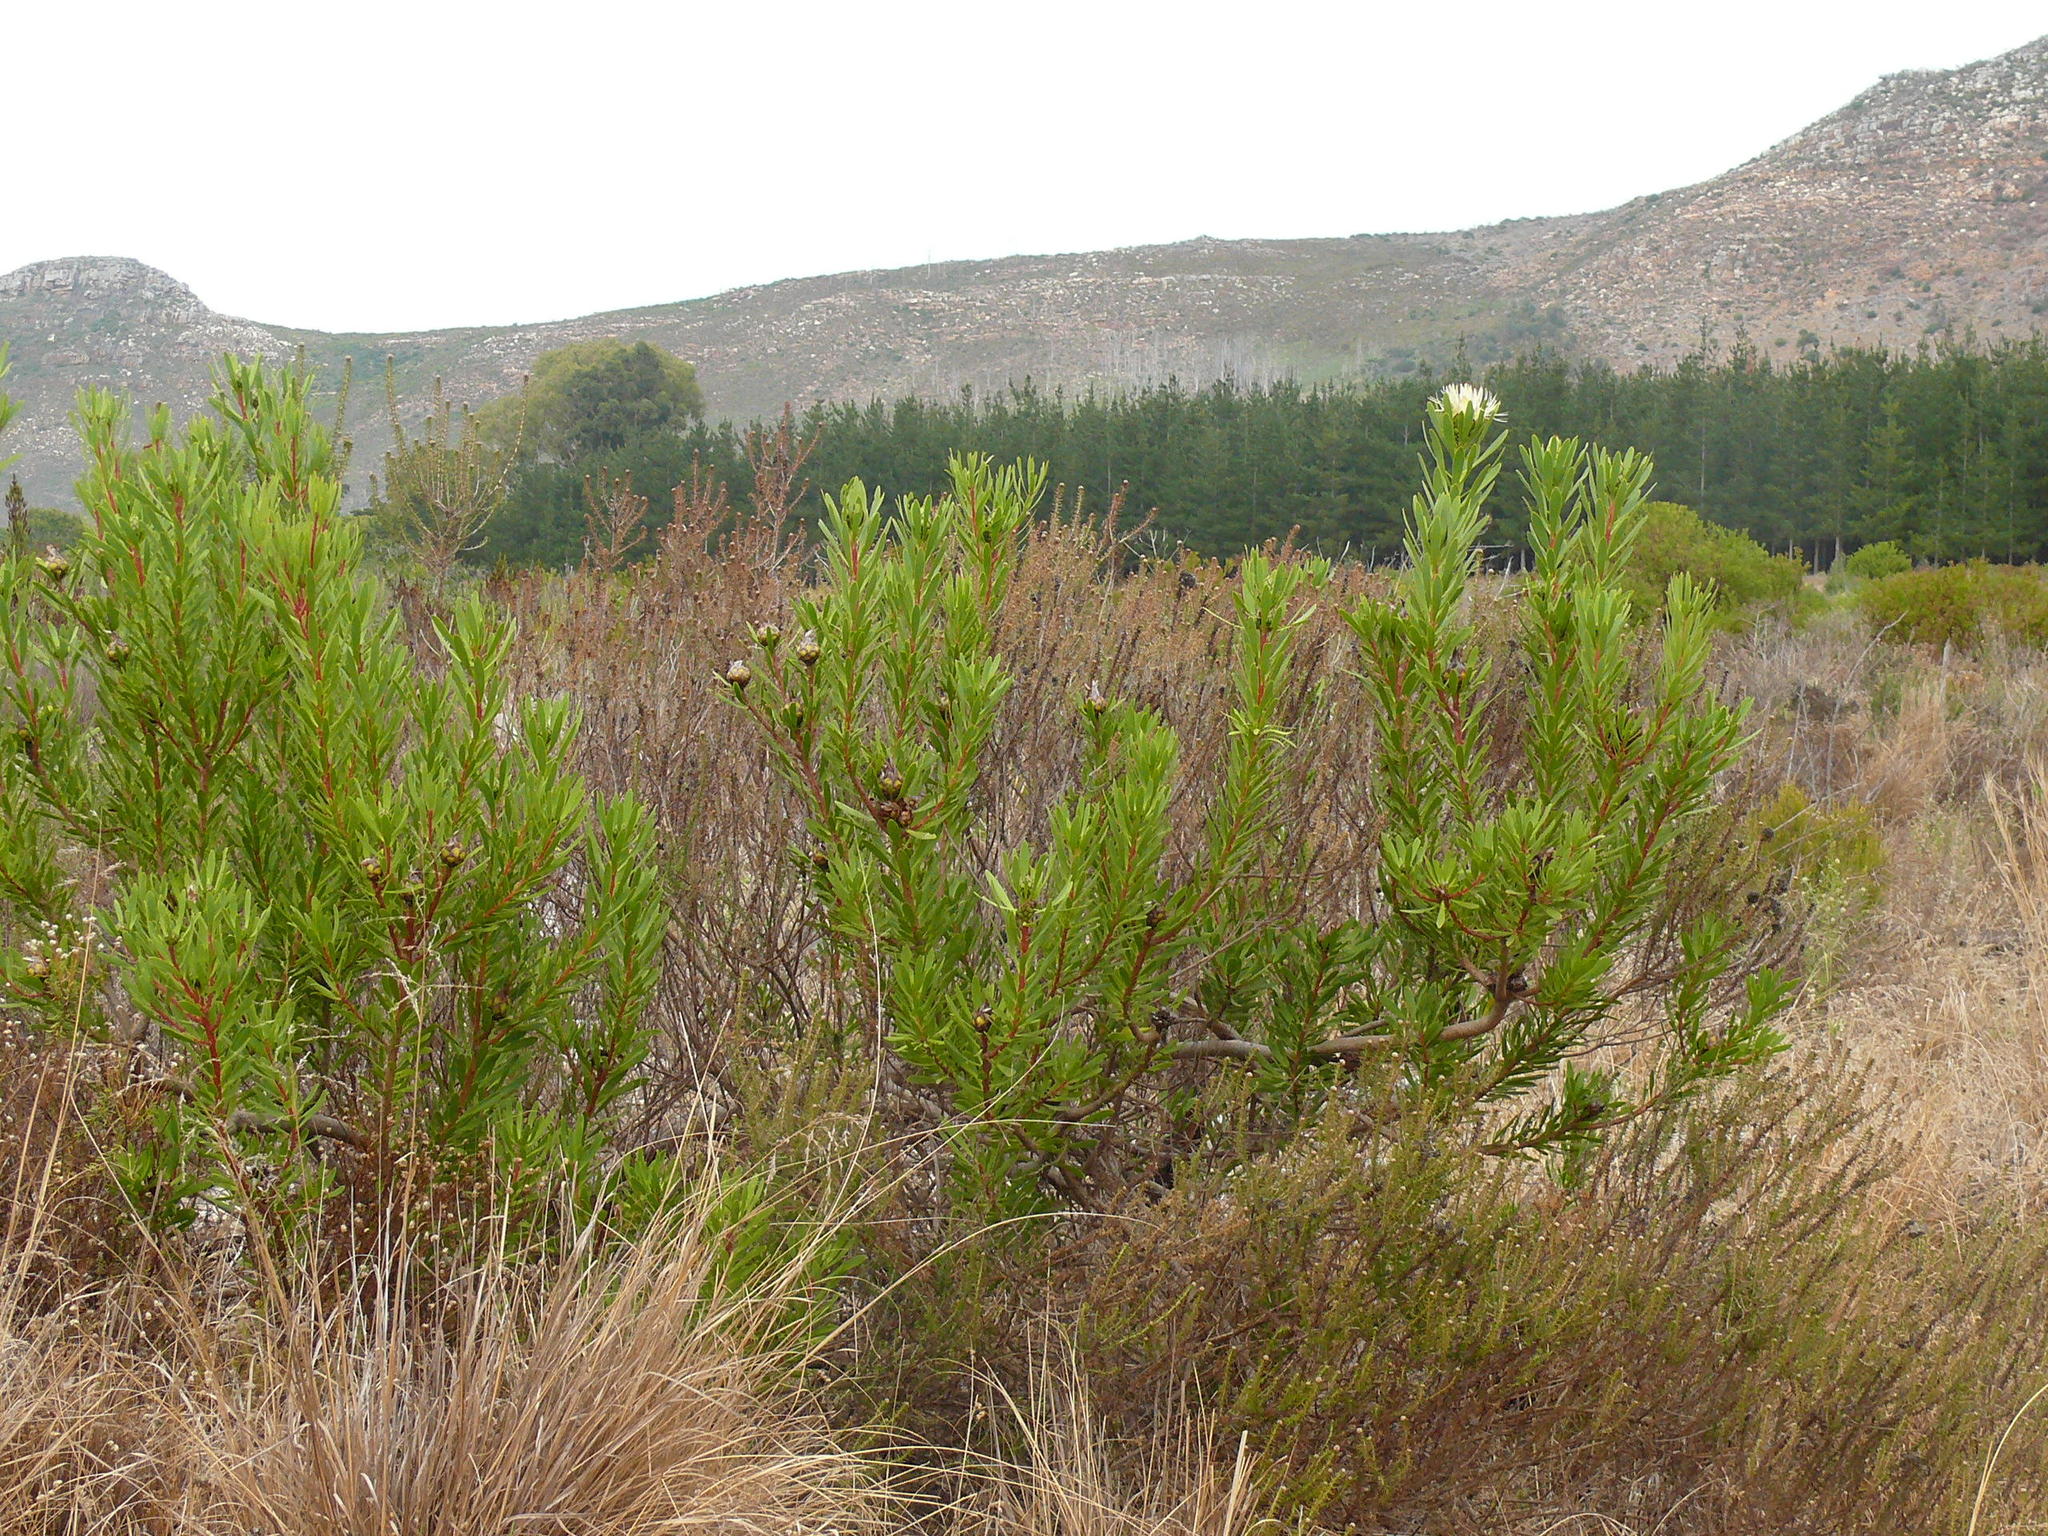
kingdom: Plantae
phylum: Tracheophyta
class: Magnoliopsida
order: Proteales
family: Proteaceae
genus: Protea
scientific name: Protea lanceolata
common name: Lance-leaved protea
